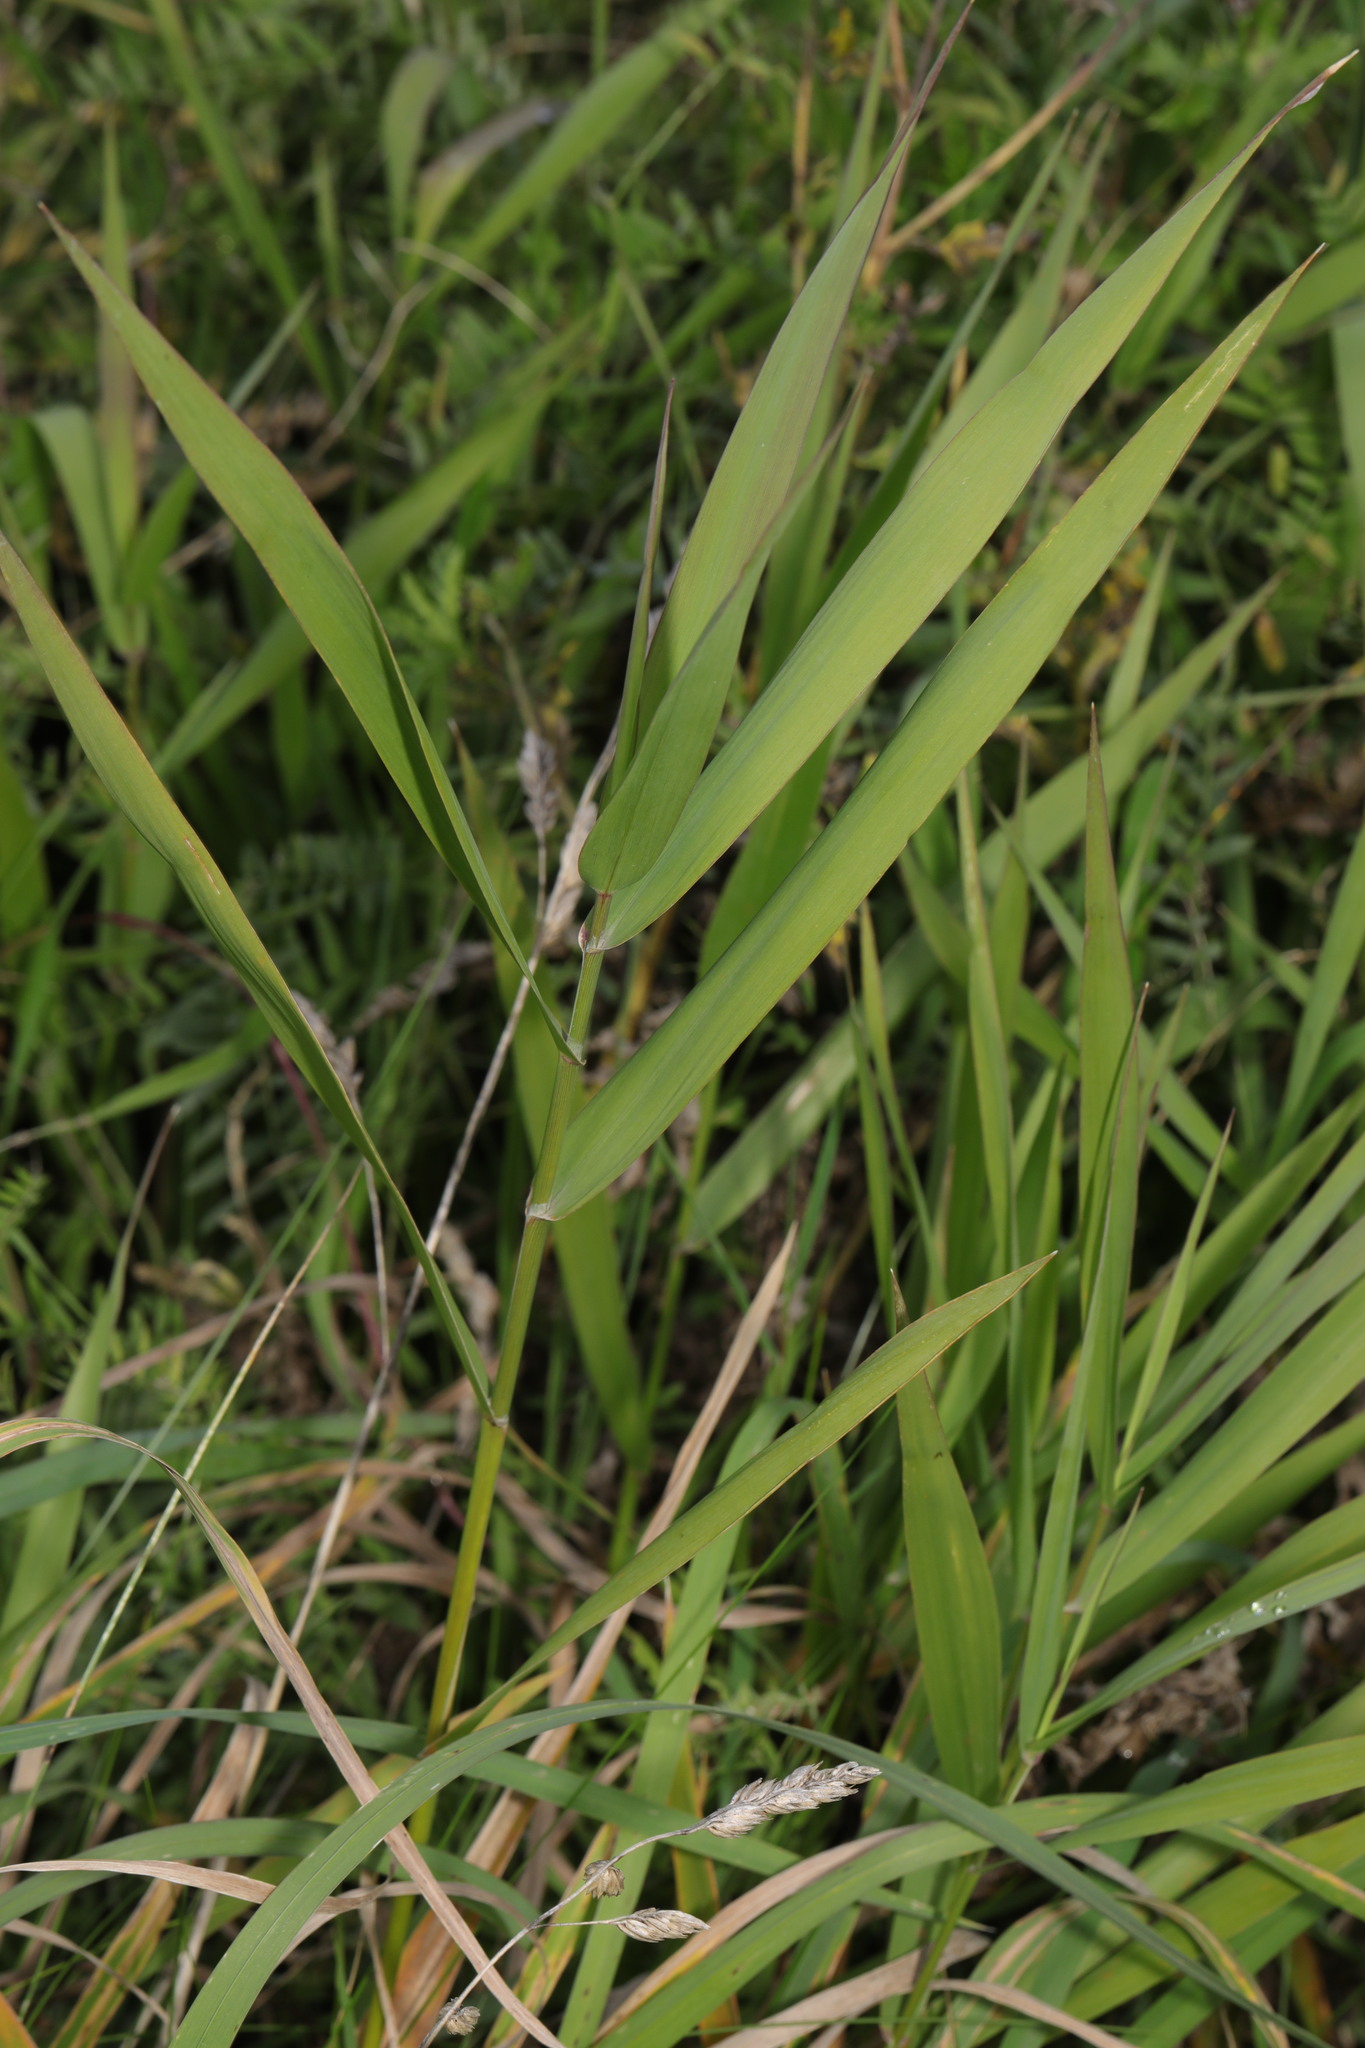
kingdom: Plantae
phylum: Tracheophyta
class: Liliopsida
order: Poales
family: Poaceae
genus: Phalaris
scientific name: Phalaris arundinacea
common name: Reed canary-grass
